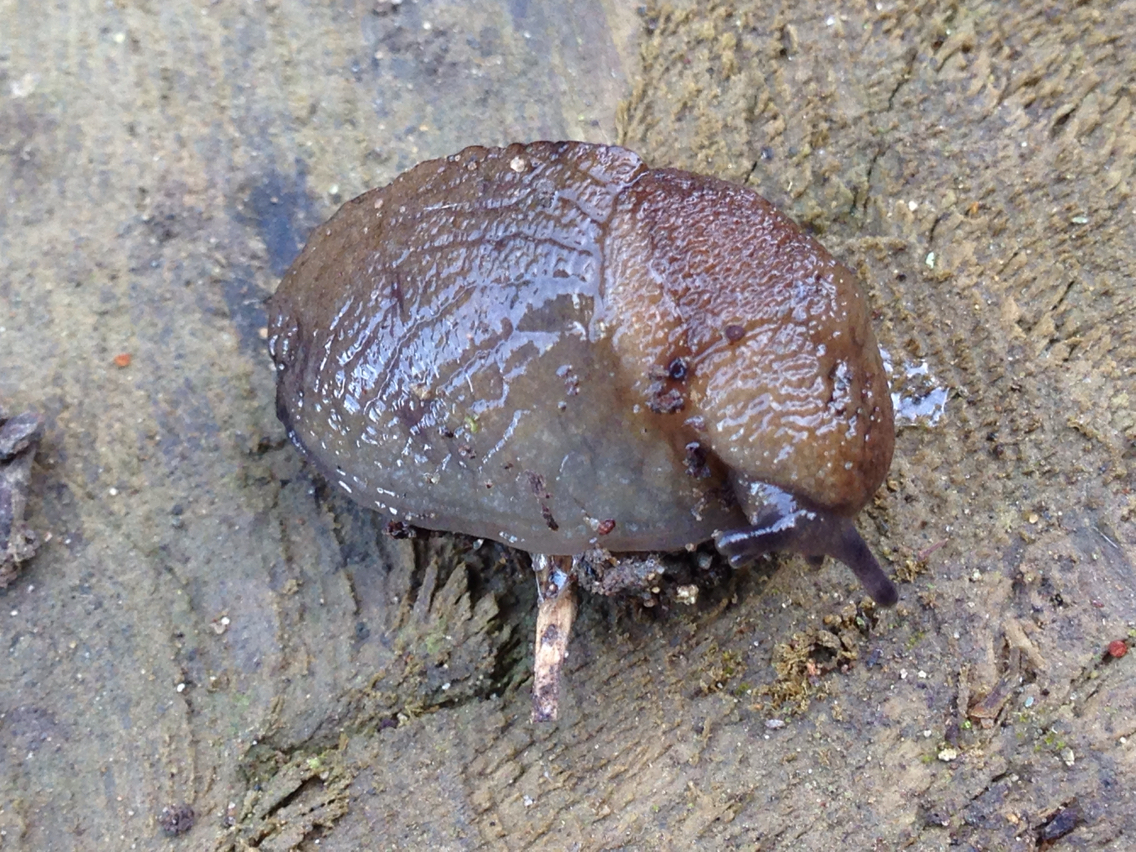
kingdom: Animalia
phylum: Mollusca
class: Gastropoda
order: Stylommatophora
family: Milacidae
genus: Milax
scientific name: Milax gagates
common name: Greenhouse slug
